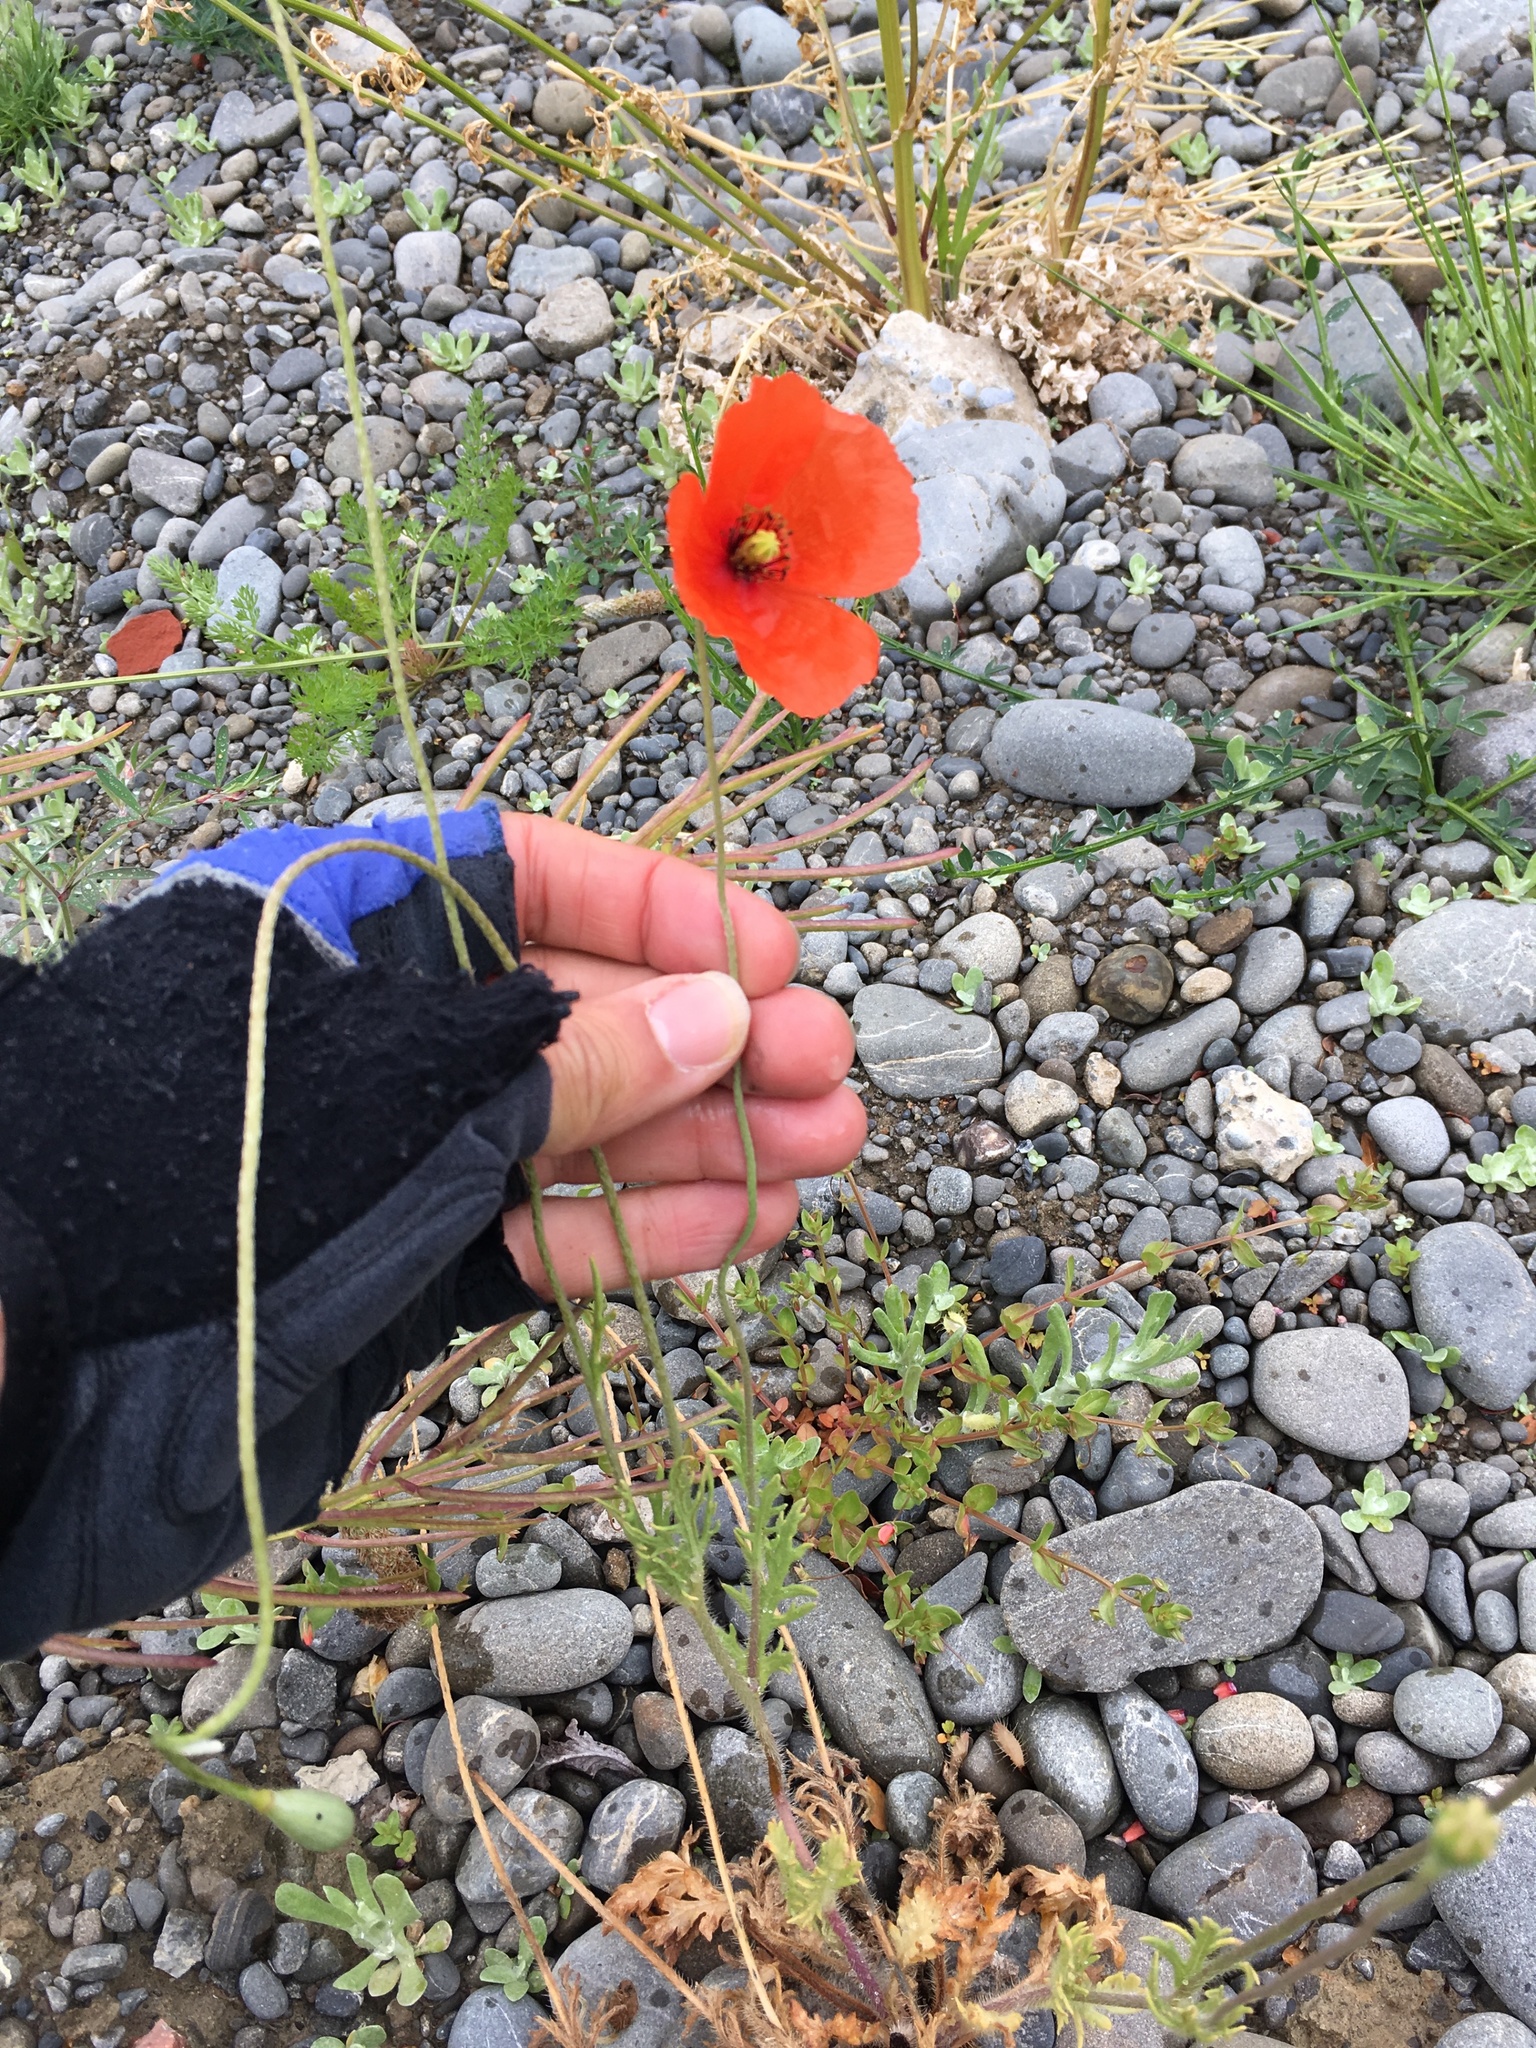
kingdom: Plantae
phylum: Tracheophyta
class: Magnoliopsida
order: Ranunculales
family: Papaveraceae
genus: Papaver
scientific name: Papaver dubium
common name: Long-headed poppy
